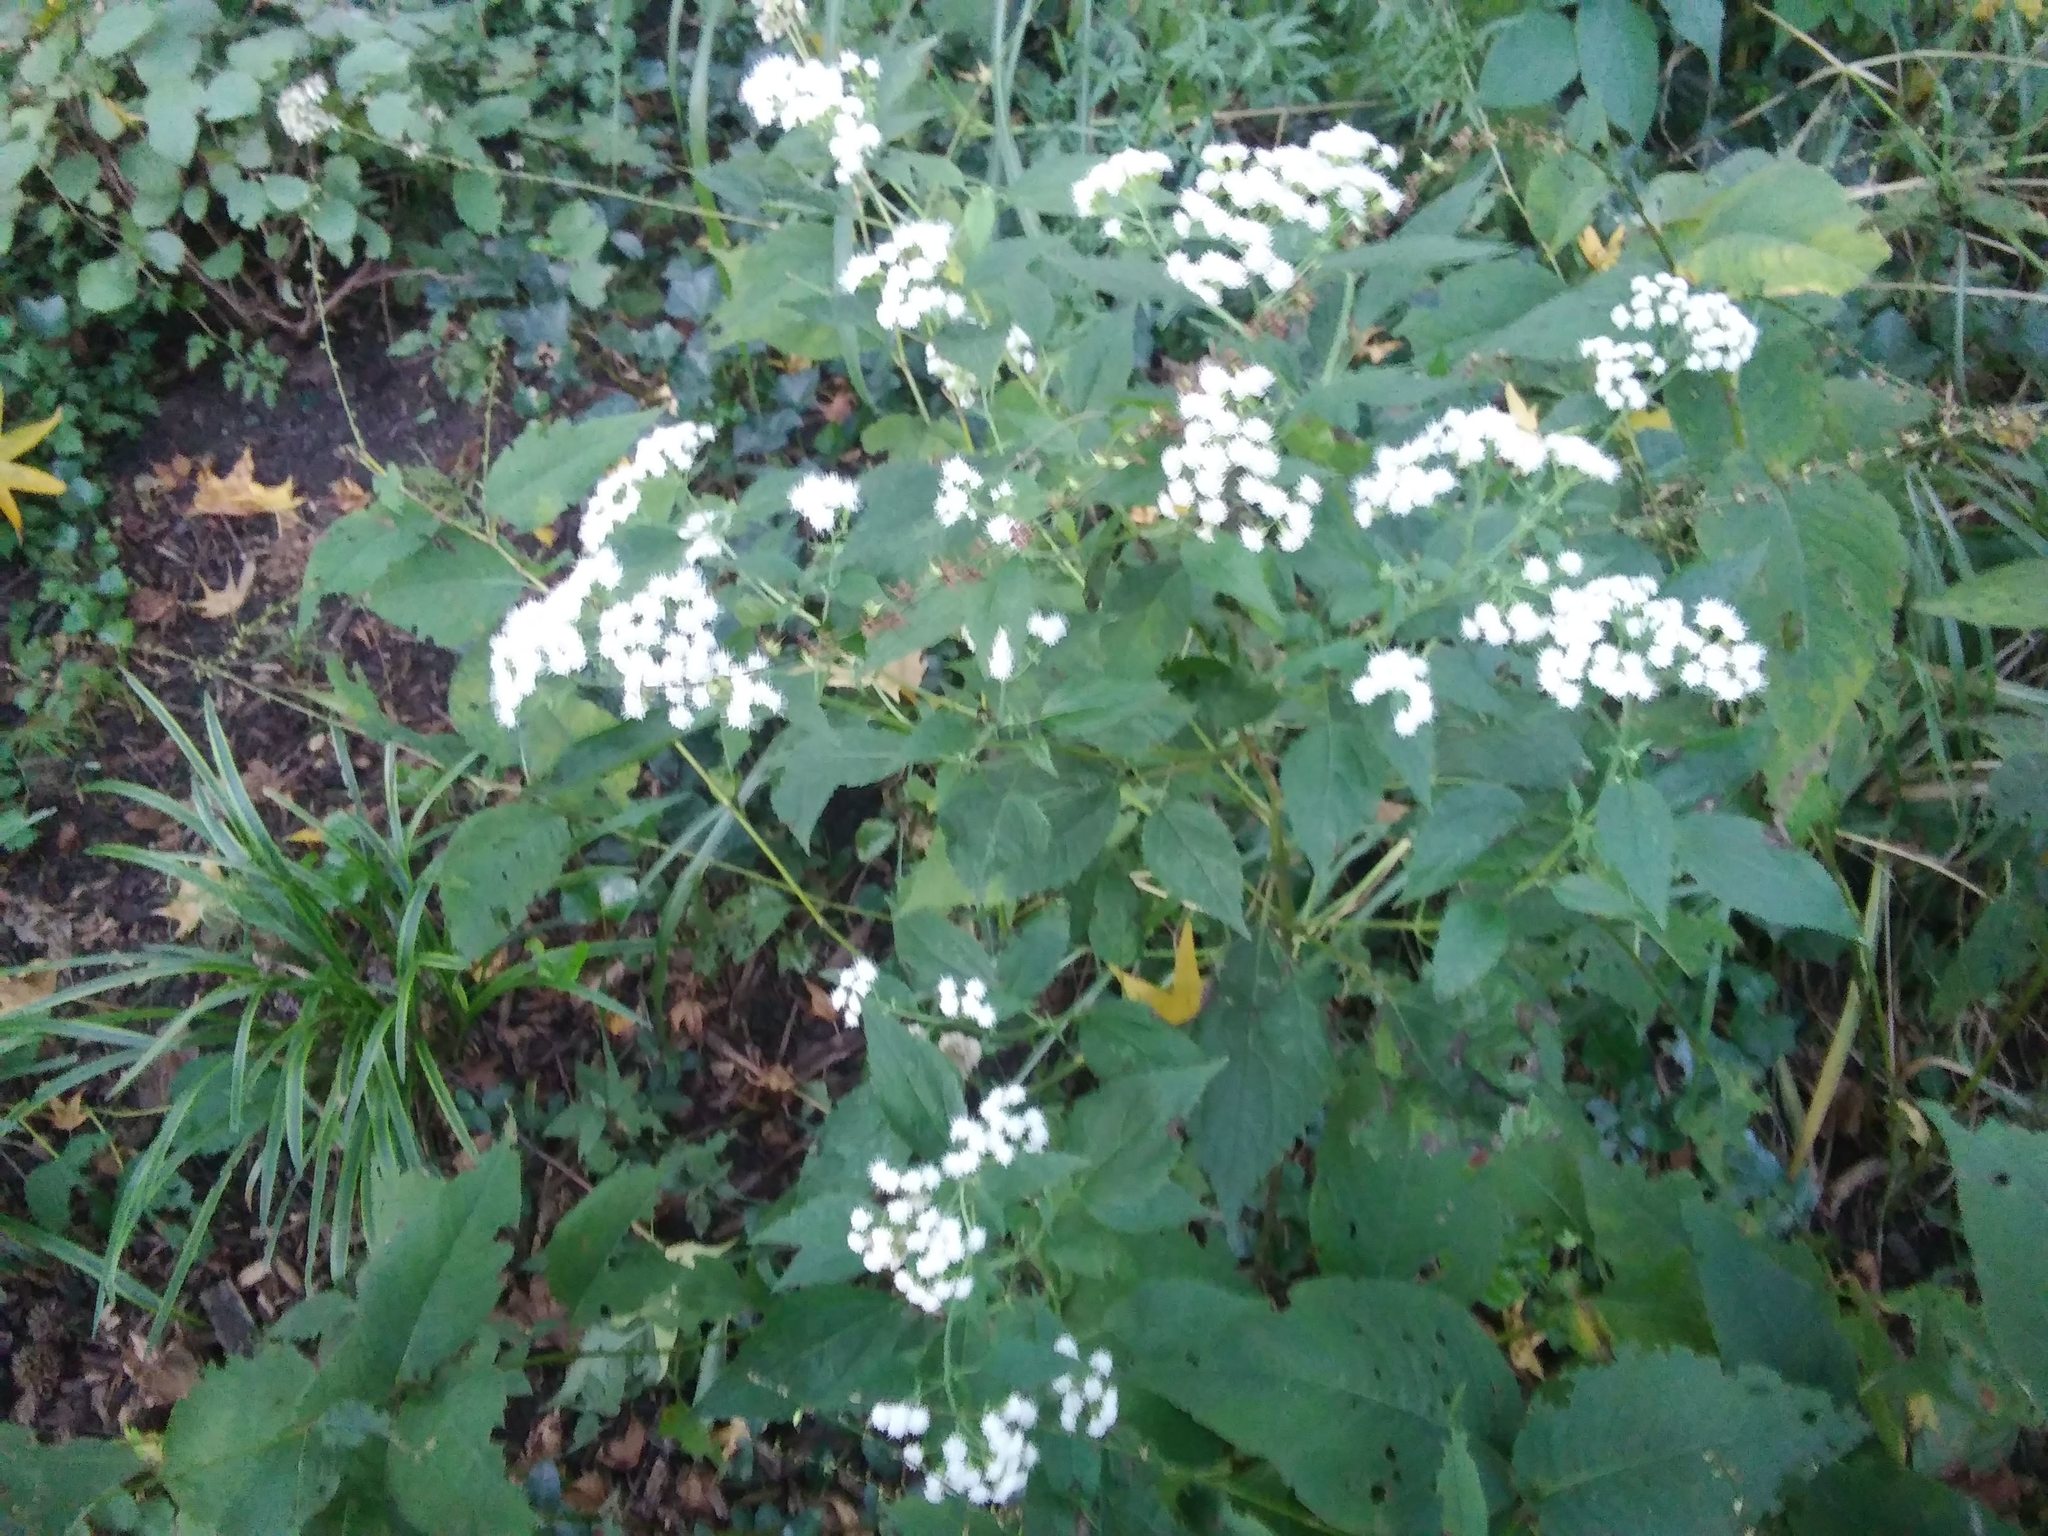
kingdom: Plantae
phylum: Tracheophyta
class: Magnoliopsida
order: Asterales
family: Asteraceae
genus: Ageratina
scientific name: Ageratina altissima
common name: White snakeroot
